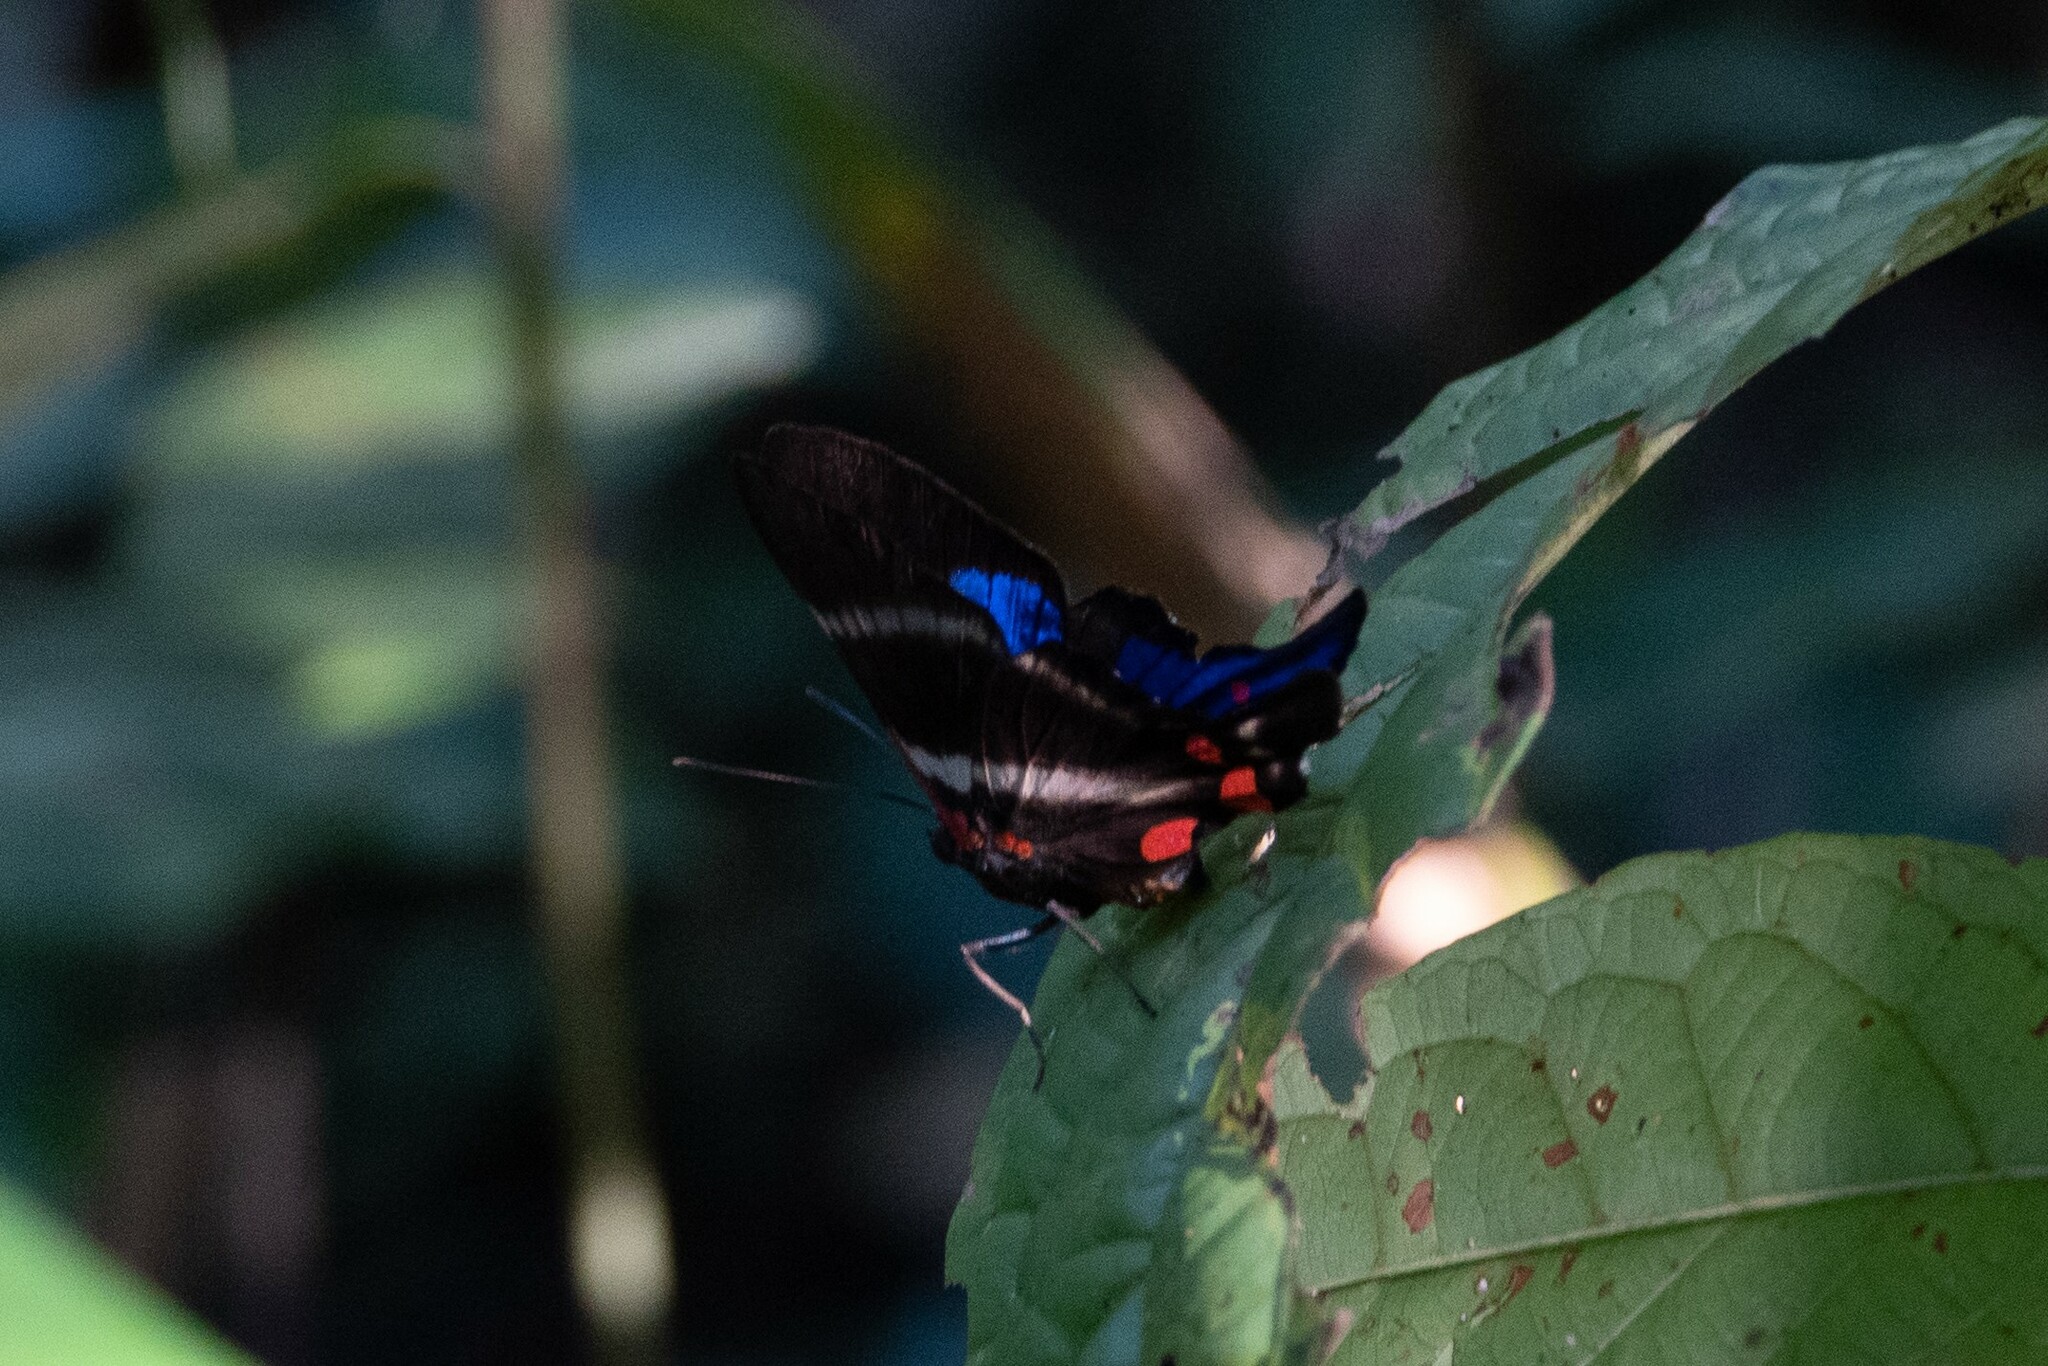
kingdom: Animalia
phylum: Arthropoda
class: Insecta
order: Lepidoptera
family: Riodinidae
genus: Rhetus
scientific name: Rhetus periander
